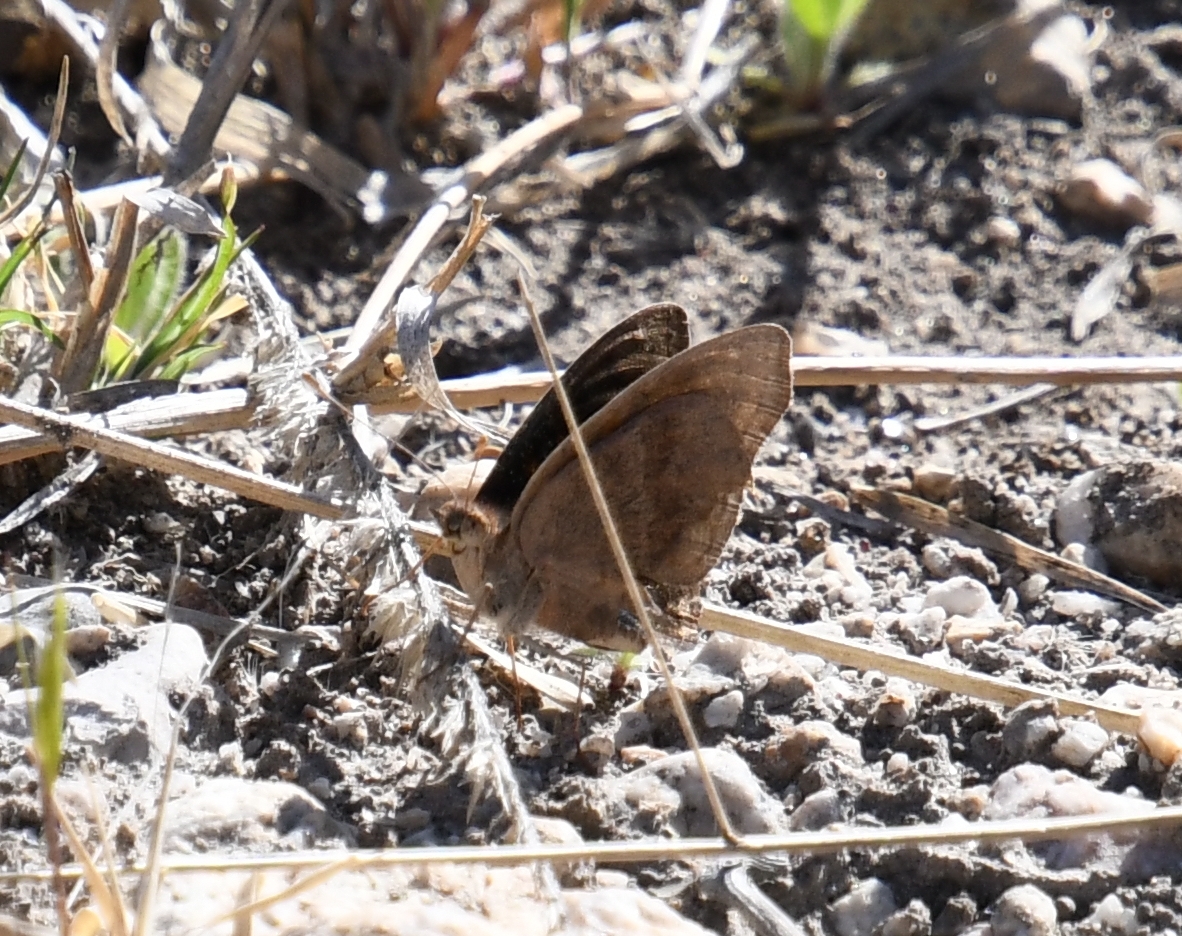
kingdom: Animalia
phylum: Arthropoda
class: Insecta
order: Lepidoptera
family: Nymphalidae
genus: Junonia
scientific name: Junonia nigrosuffusa
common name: Dark buckeye
